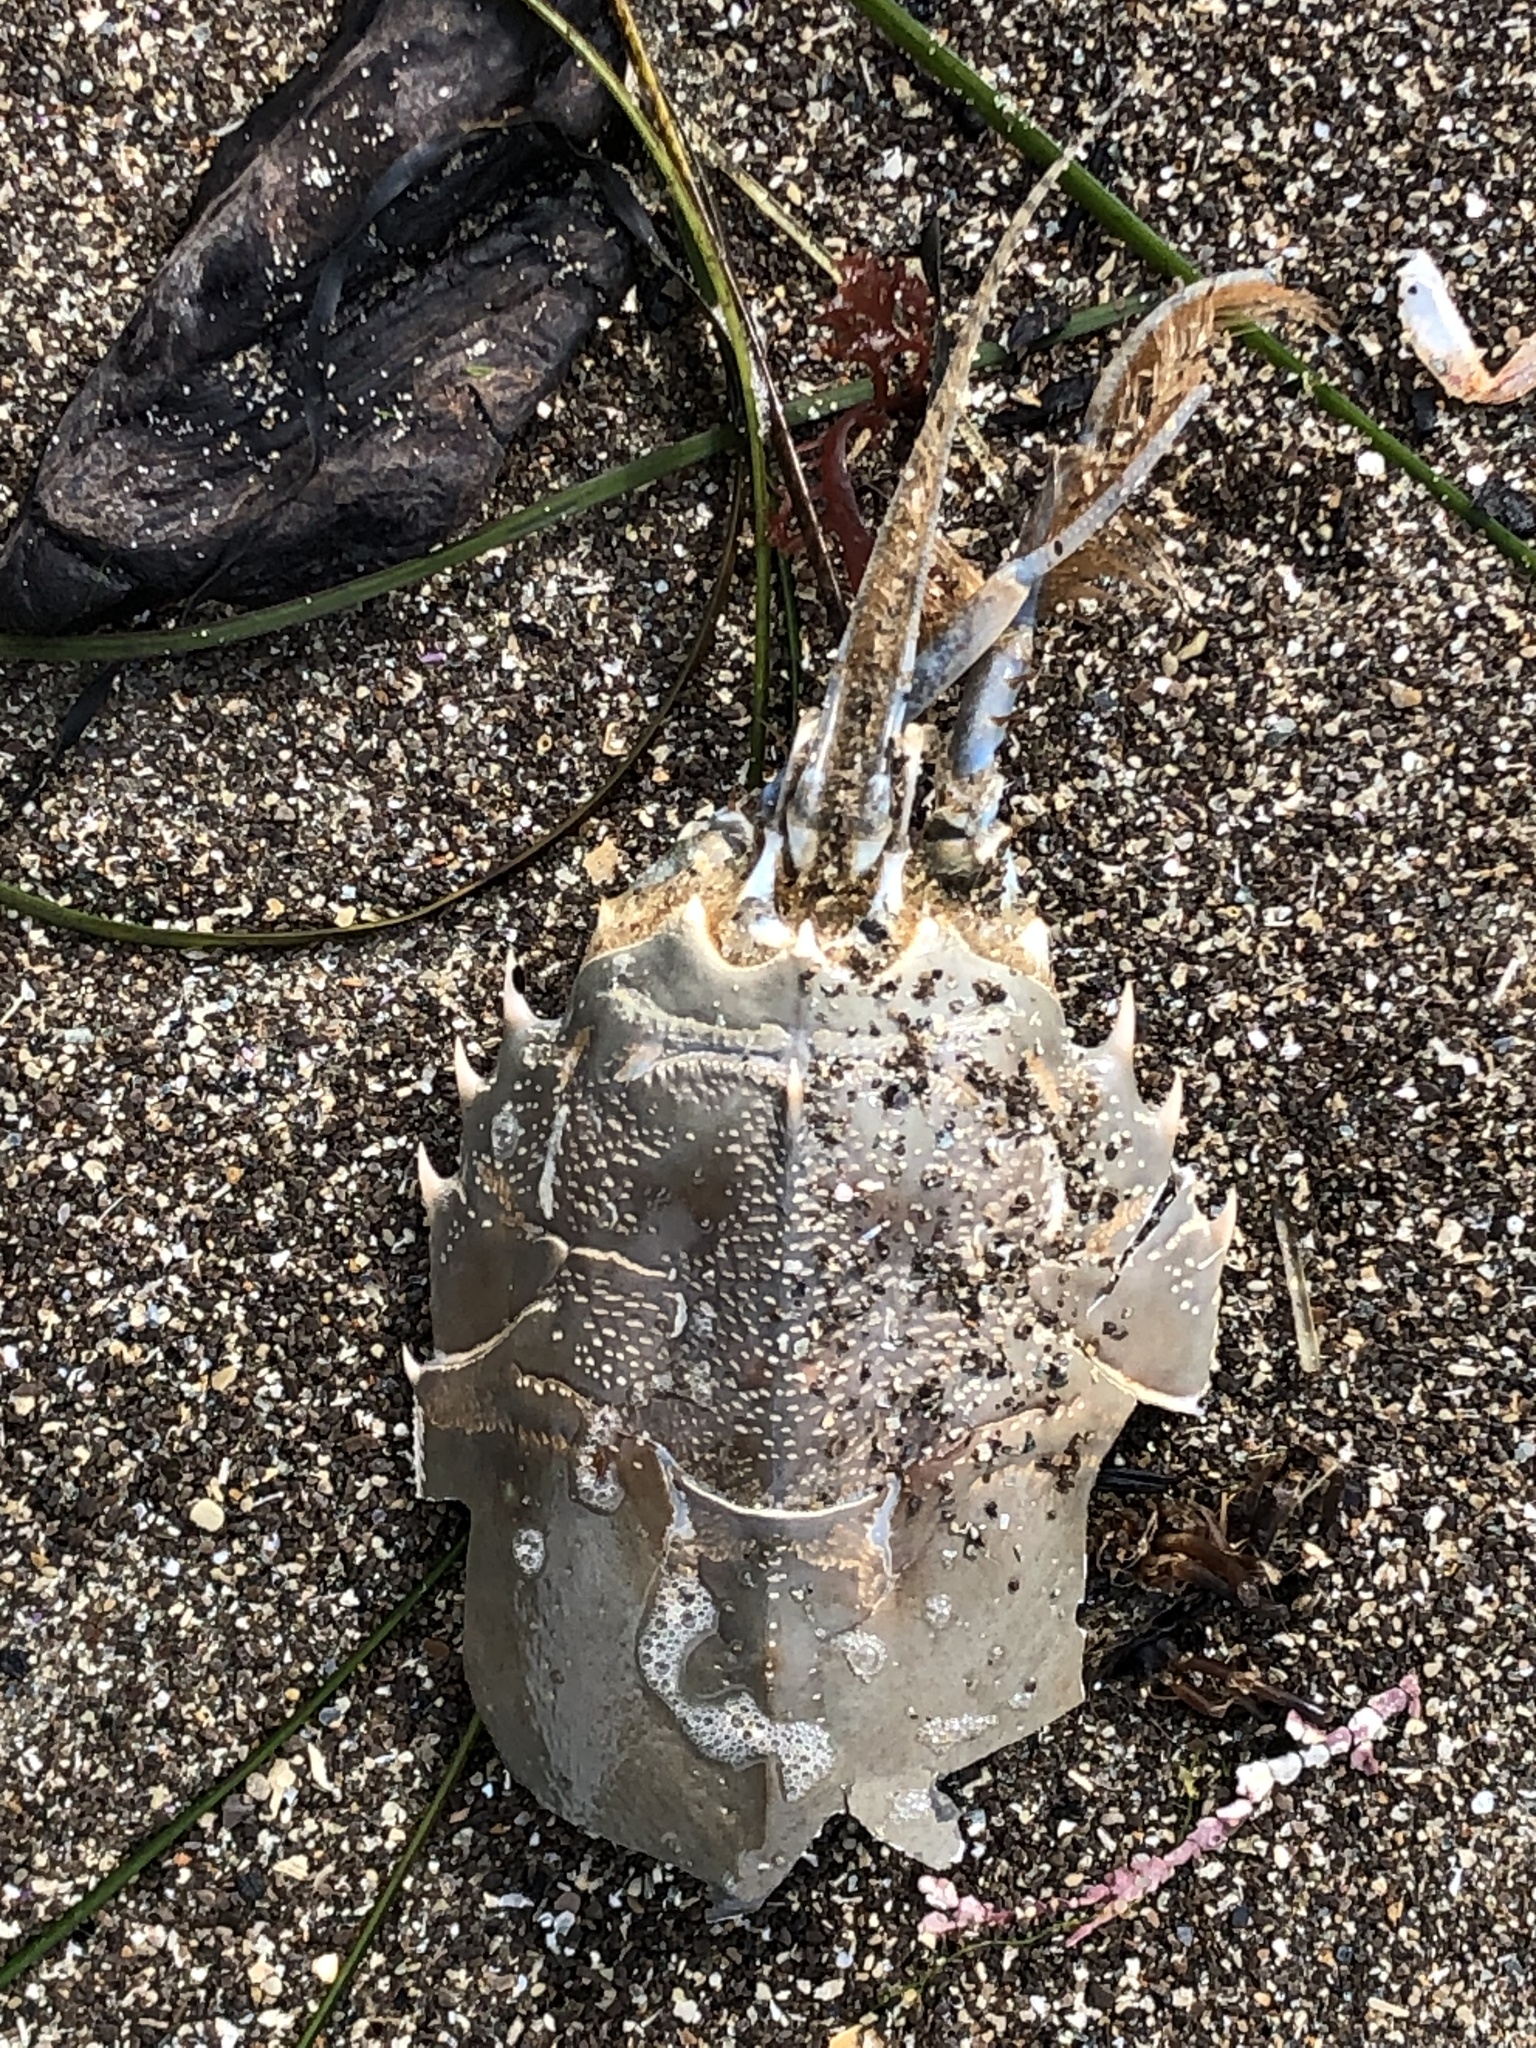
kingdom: Animalia
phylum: Arthropoda
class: Malacostraca
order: Decapoda
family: Blepharipodidae
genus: Blepharipoda
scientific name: Blepharipoda occidentalis
